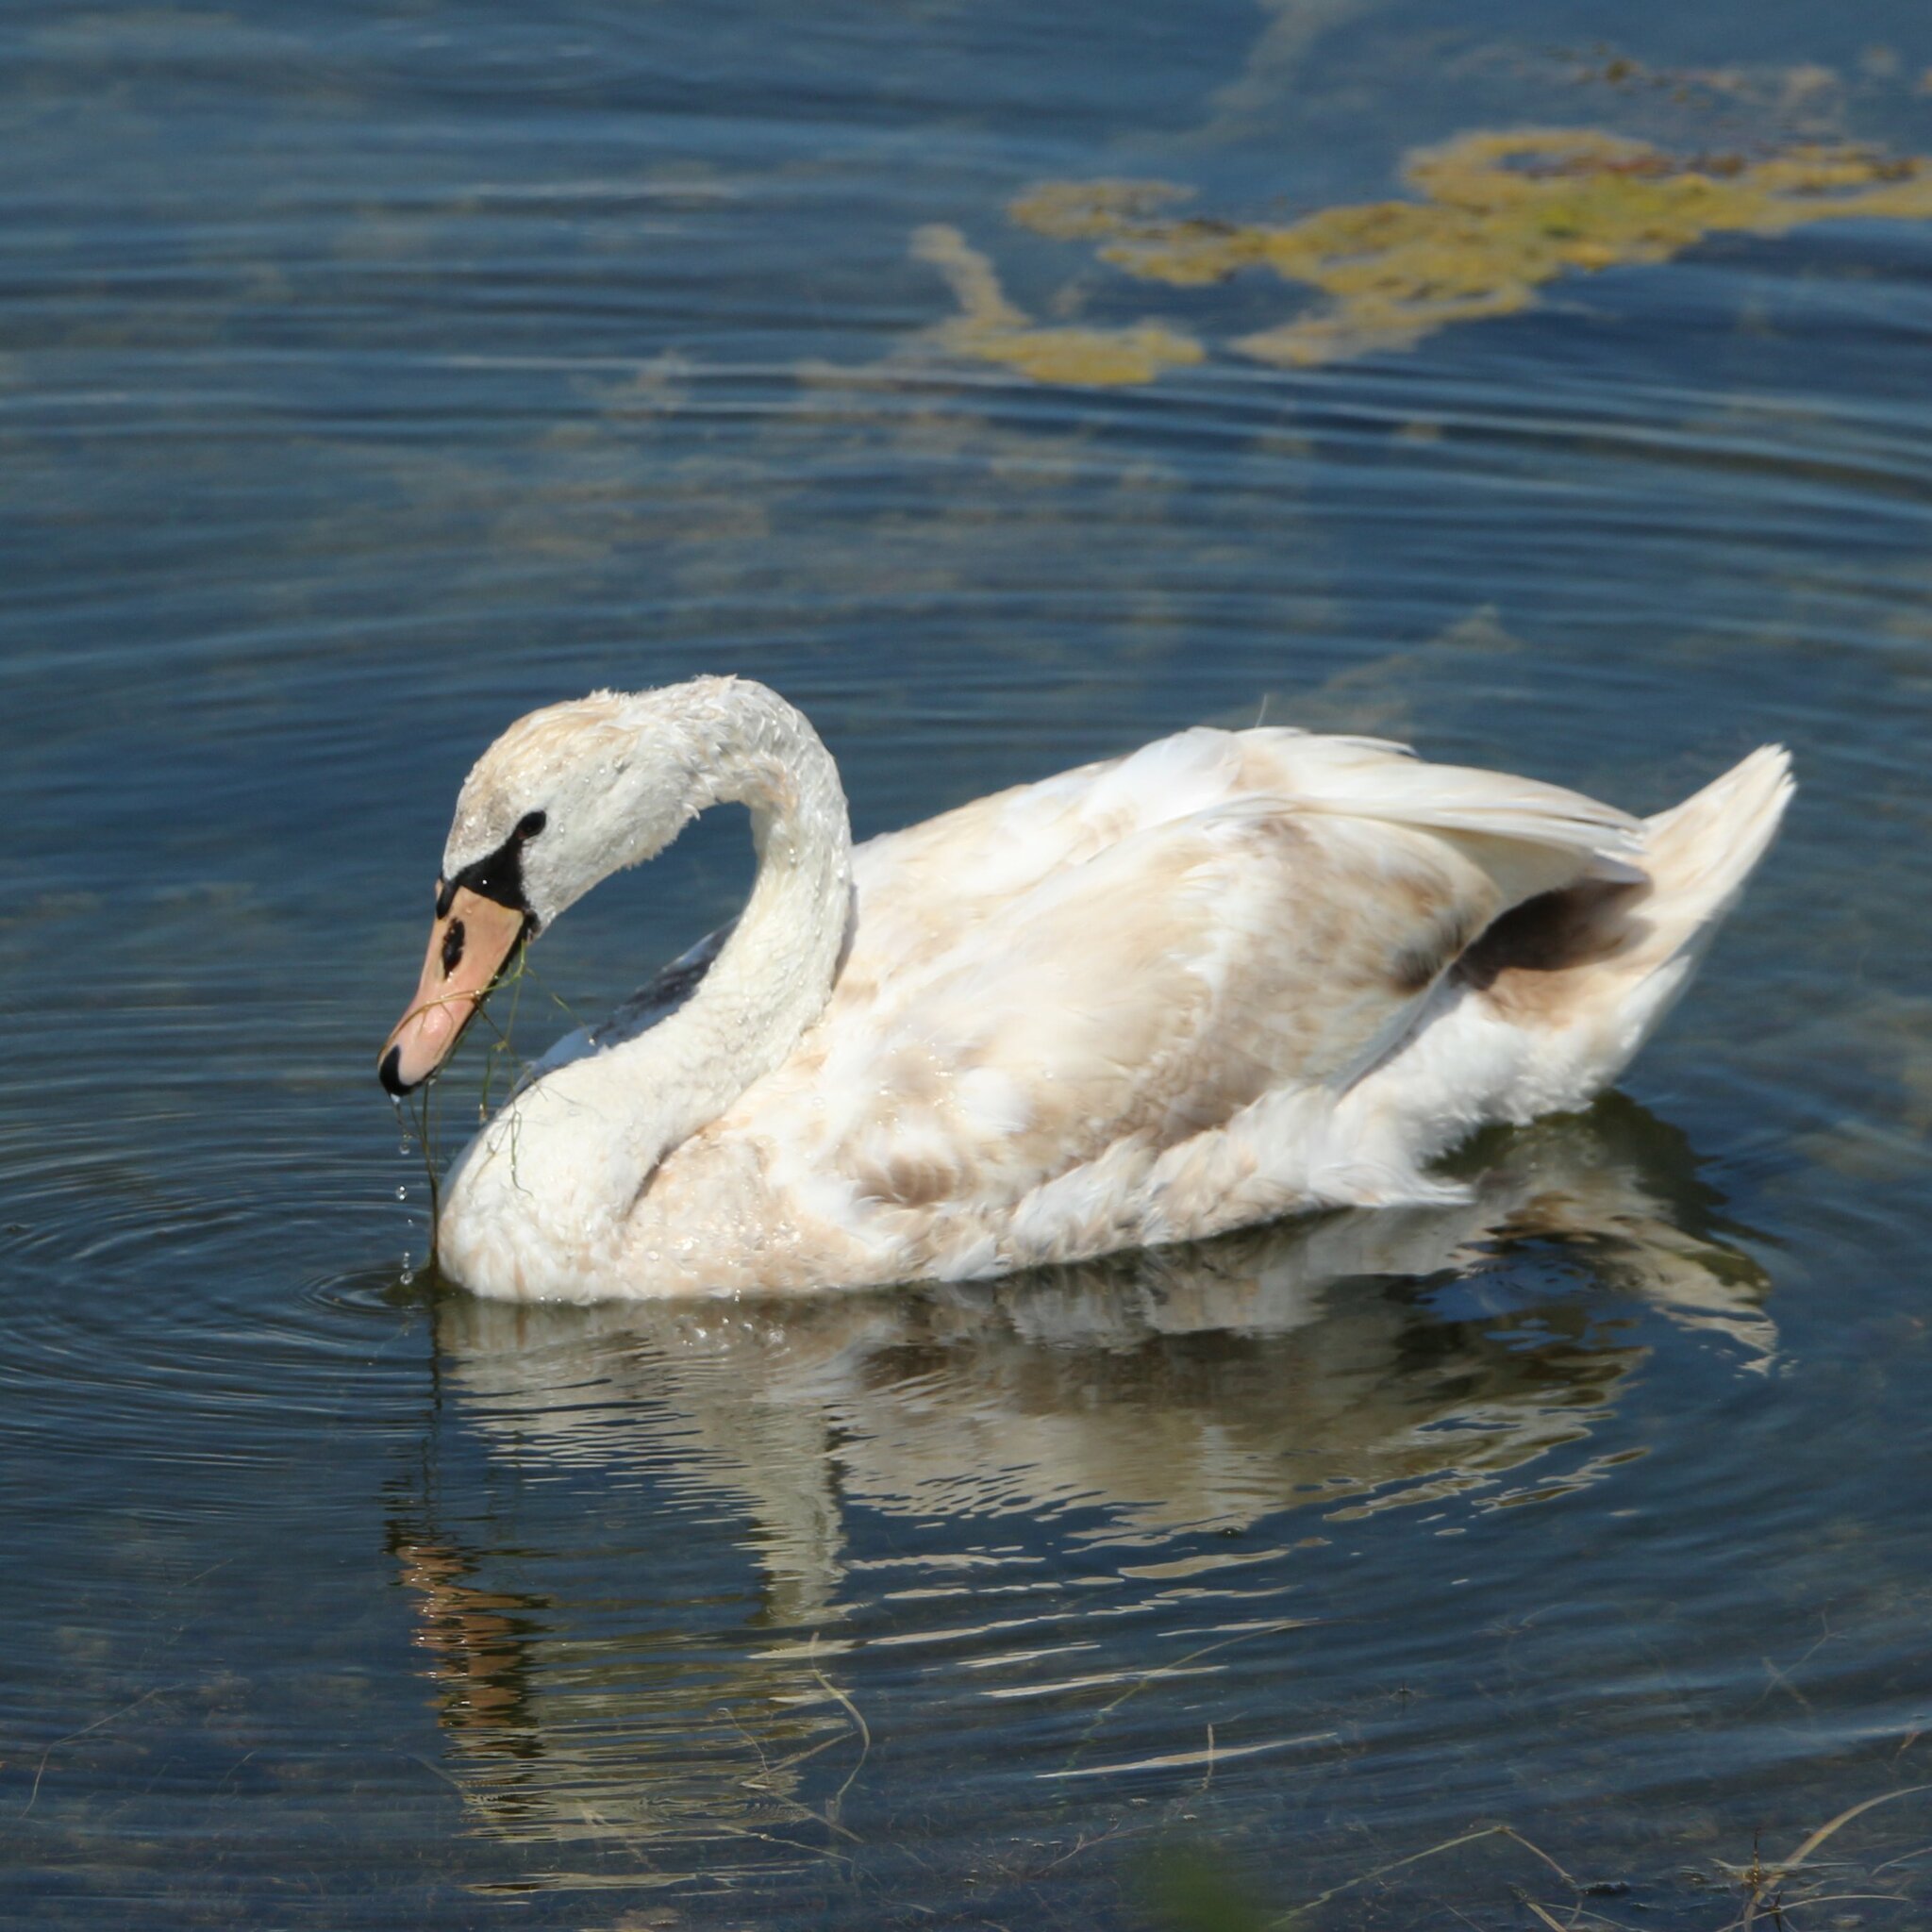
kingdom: Animalia
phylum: Chordata
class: Aves
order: Anseriformes
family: Anatidae
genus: Cygnus
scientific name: Cygnus olor
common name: Mute swan
